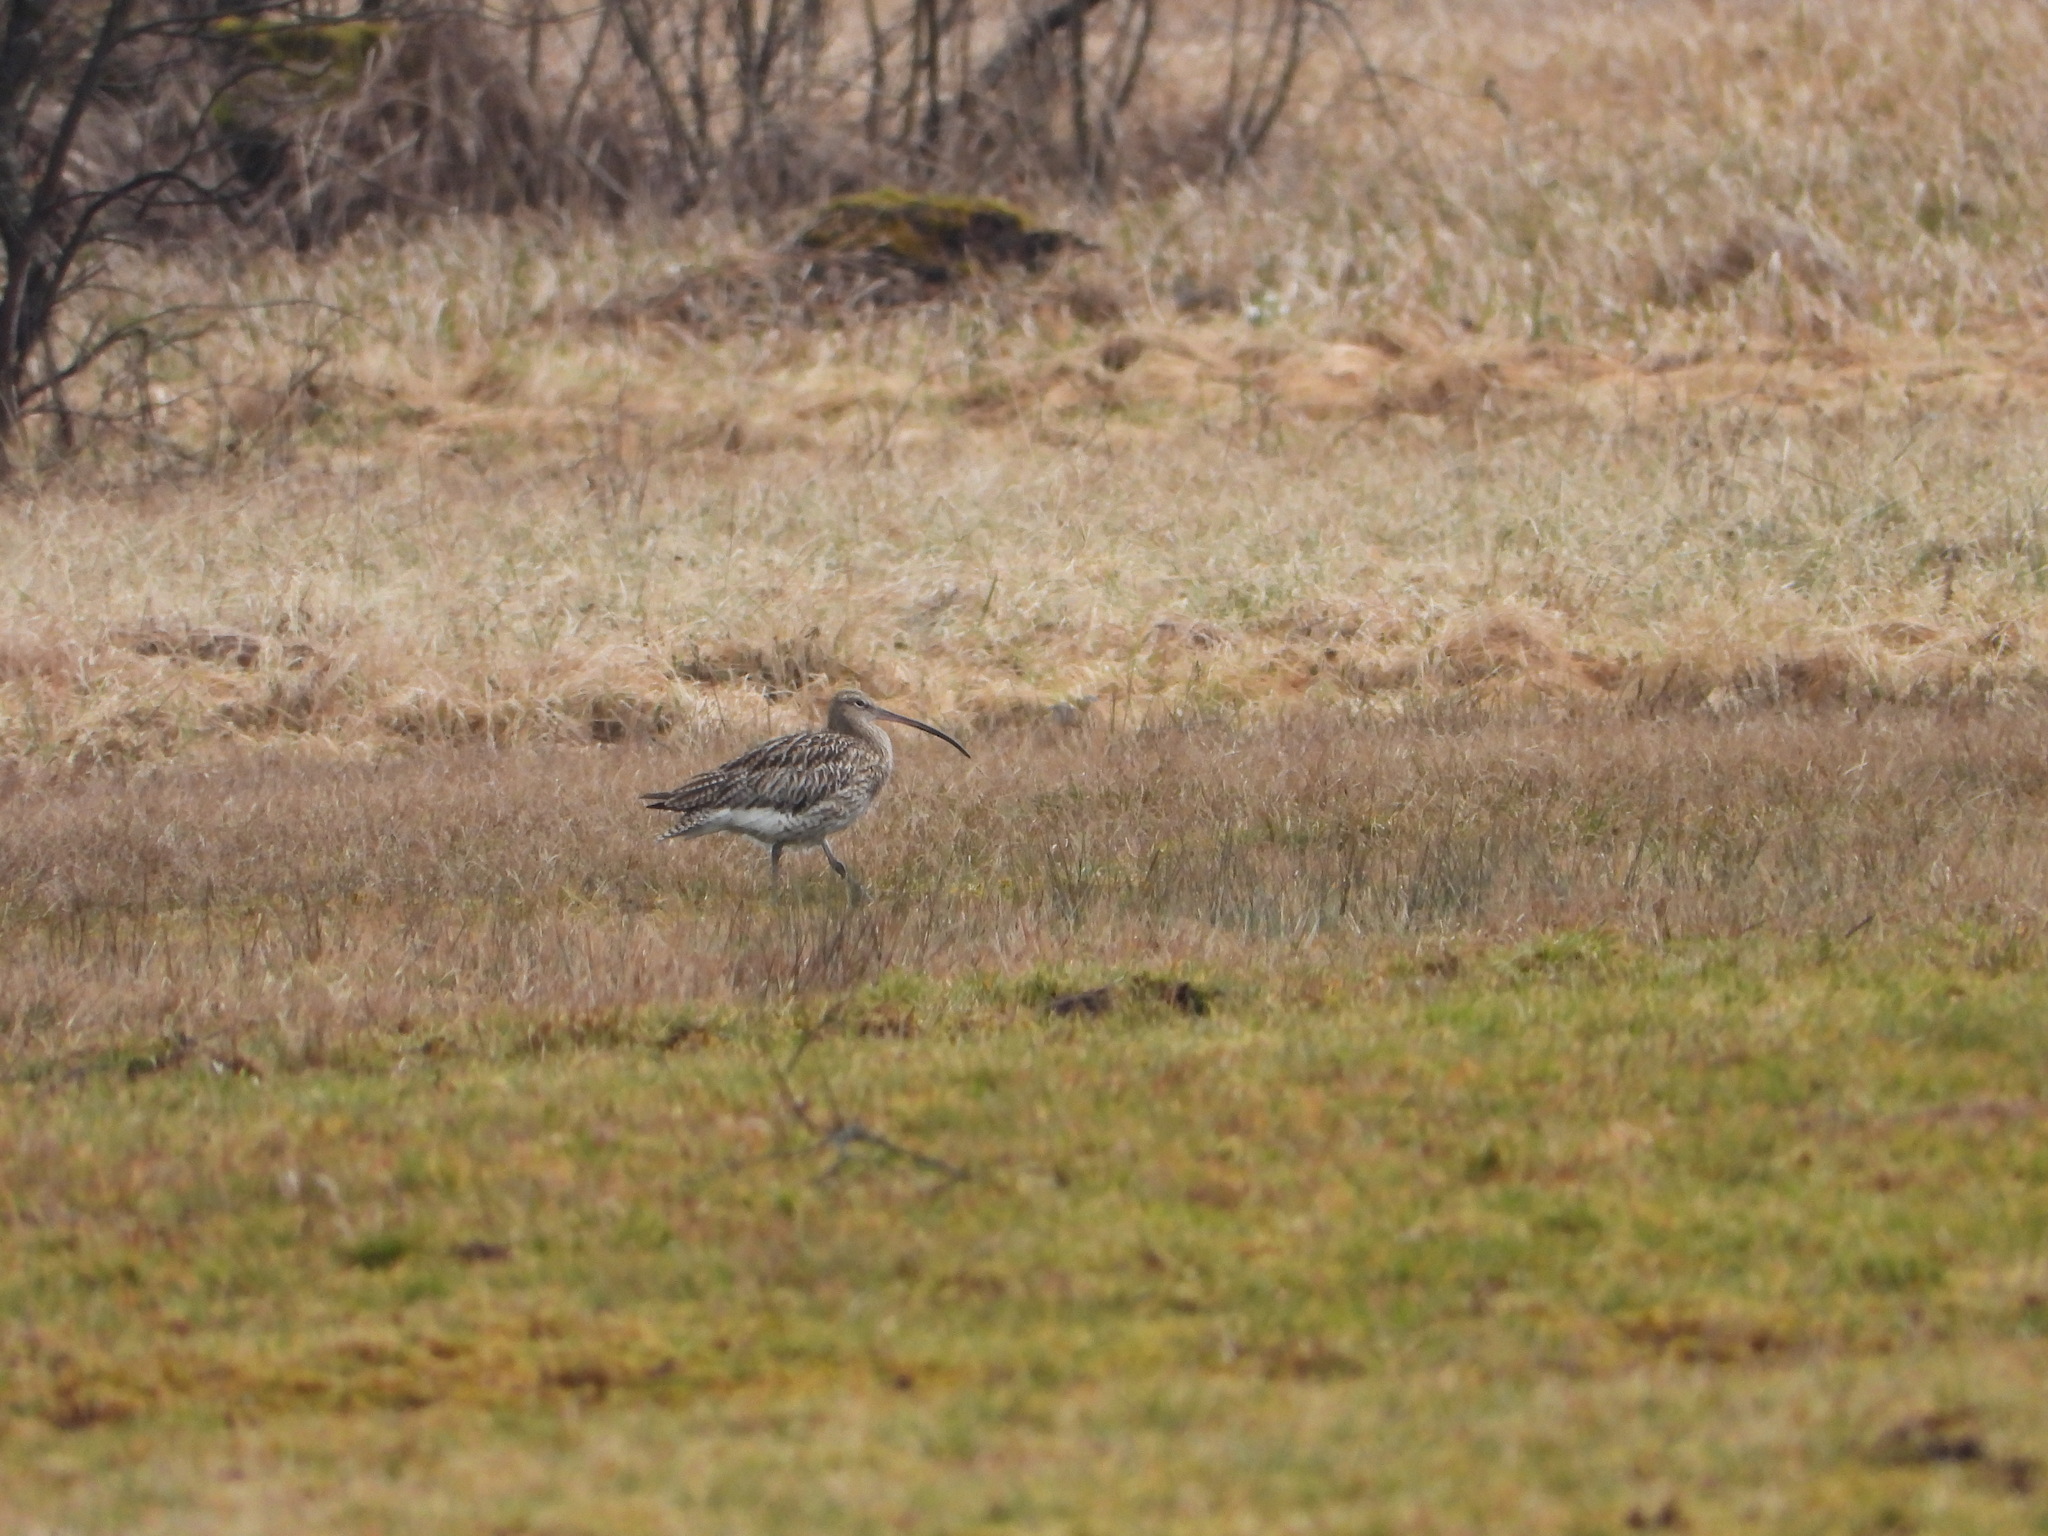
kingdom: Animalia
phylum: Chordata
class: Aves
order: Charadriiformes
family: Scolopacidae
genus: Numenius
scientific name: Numenius arquata
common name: Eurasian curlew
